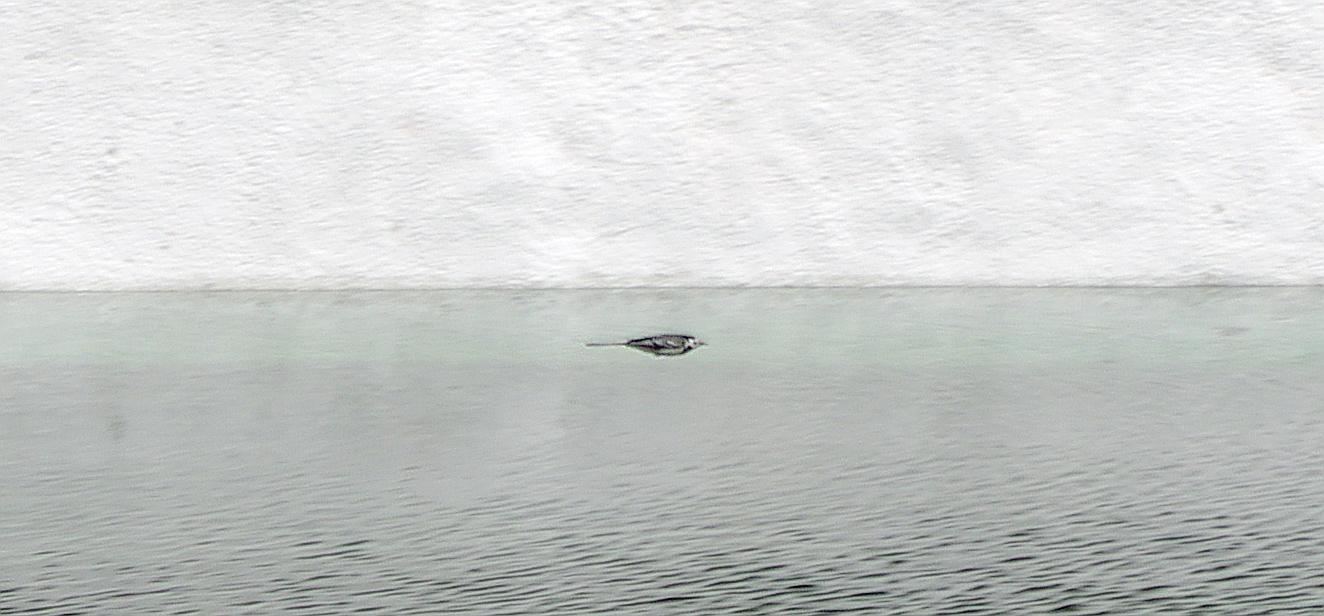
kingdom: Animalia
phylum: Chordata
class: Aves
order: Passeriformes
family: Motacillidae
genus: Motacilla
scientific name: Motacilla alba
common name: White wagtail
